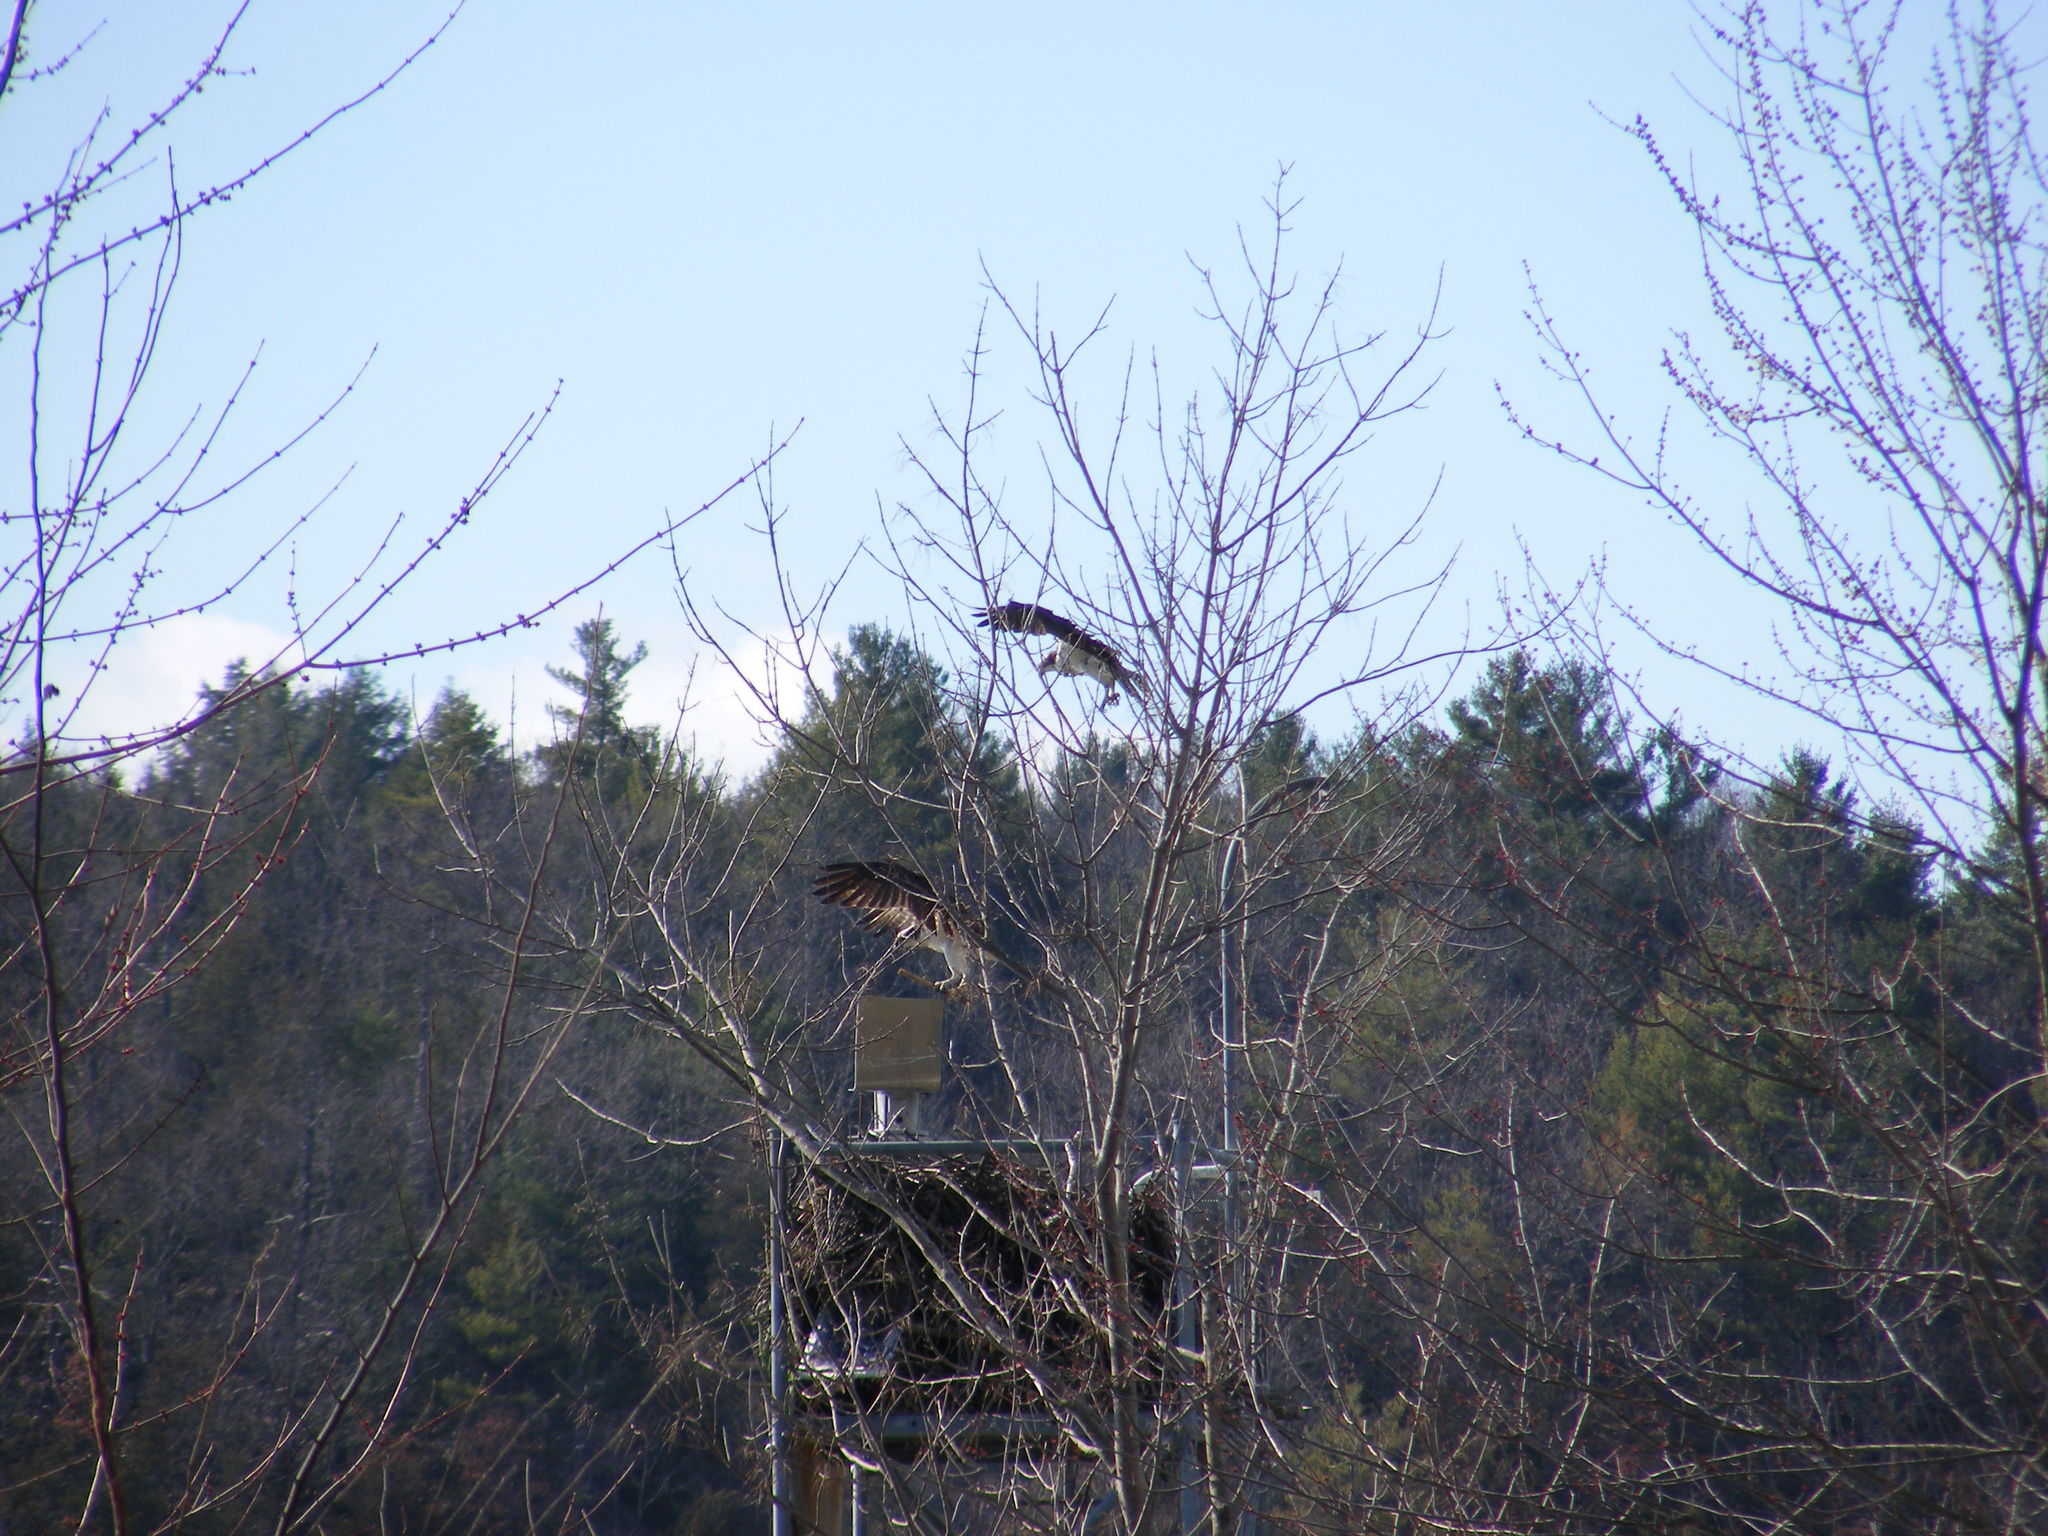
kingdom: Animalia
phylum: Chordata
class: Aves
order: Accipitriformes
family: Pandionidae
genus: Pandion
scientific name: Pandion haliaetus
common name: Osprey
